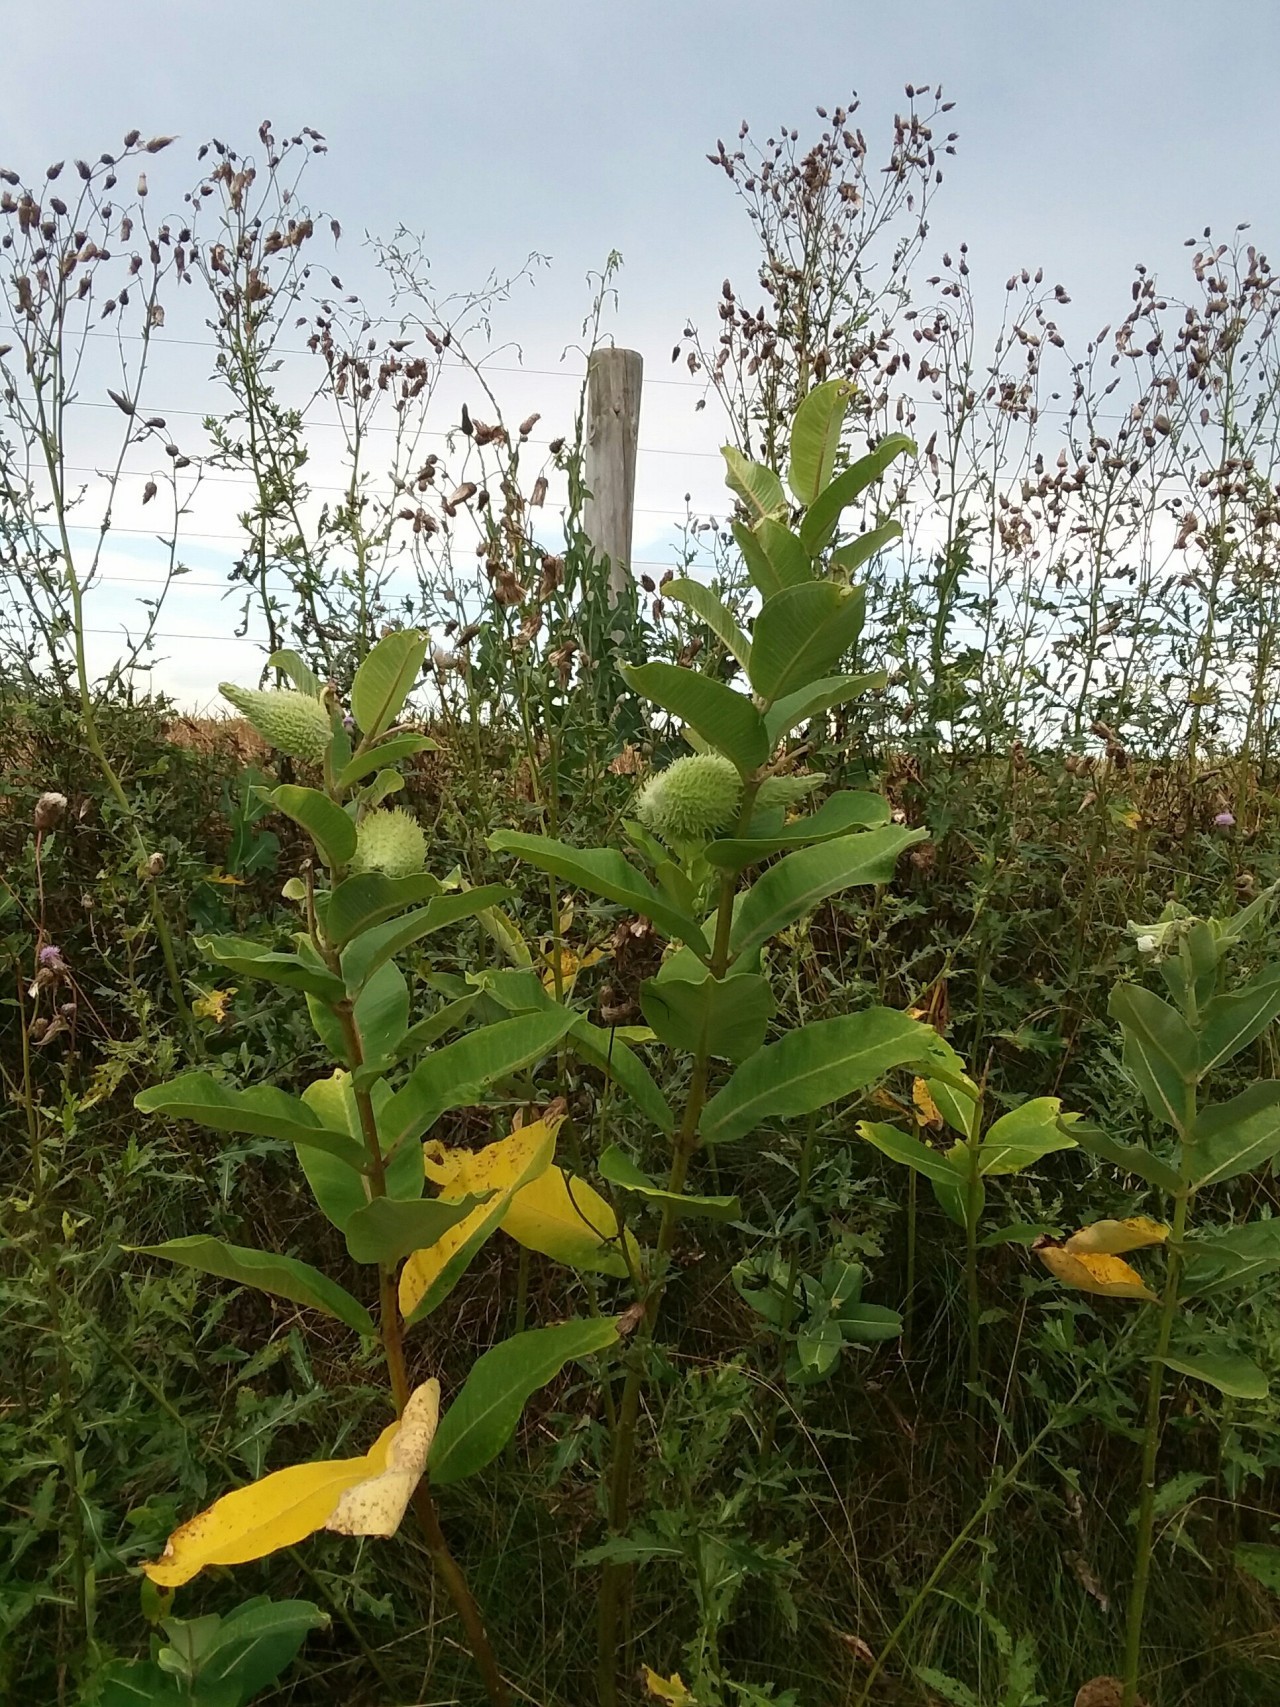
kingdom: Plantae
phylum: Tracheophyta
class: Magnoliopsida
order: Gentianales
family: Apocynaceae
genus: Asclepias
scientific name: Asclepias syriaca
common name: Common milkweed
